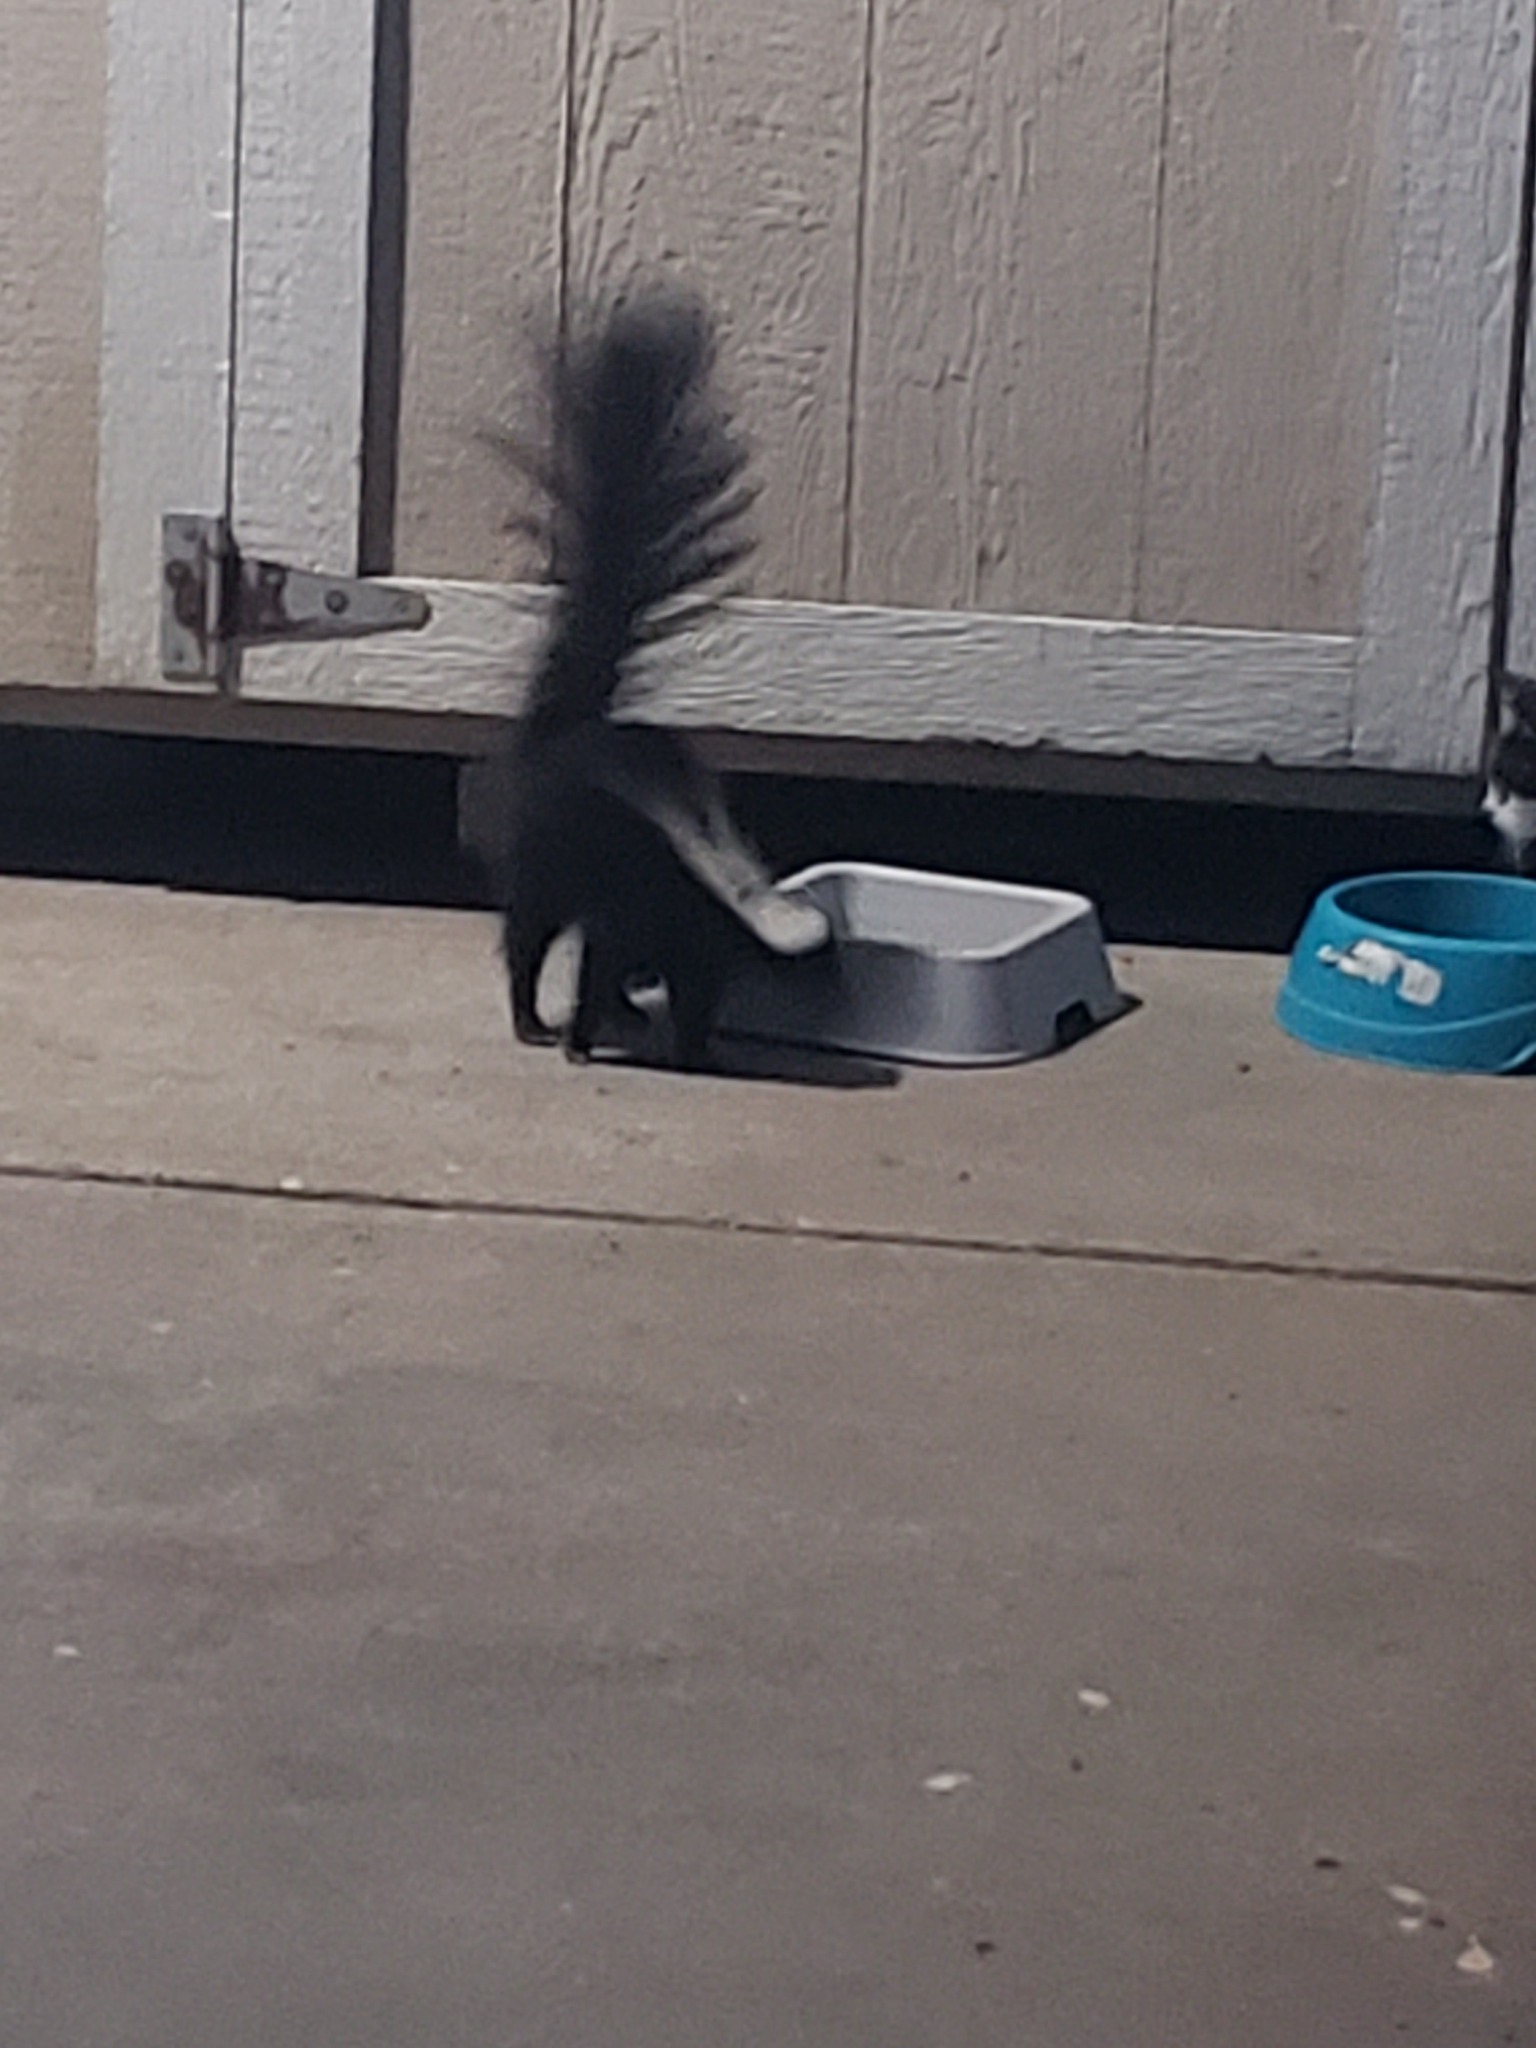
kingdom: Animalia
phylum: Chordata
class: Mammalia
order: Carnivora
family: Mephitidae
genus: Mephitis
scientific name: Mephitis mephitis
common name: Striped skunk
